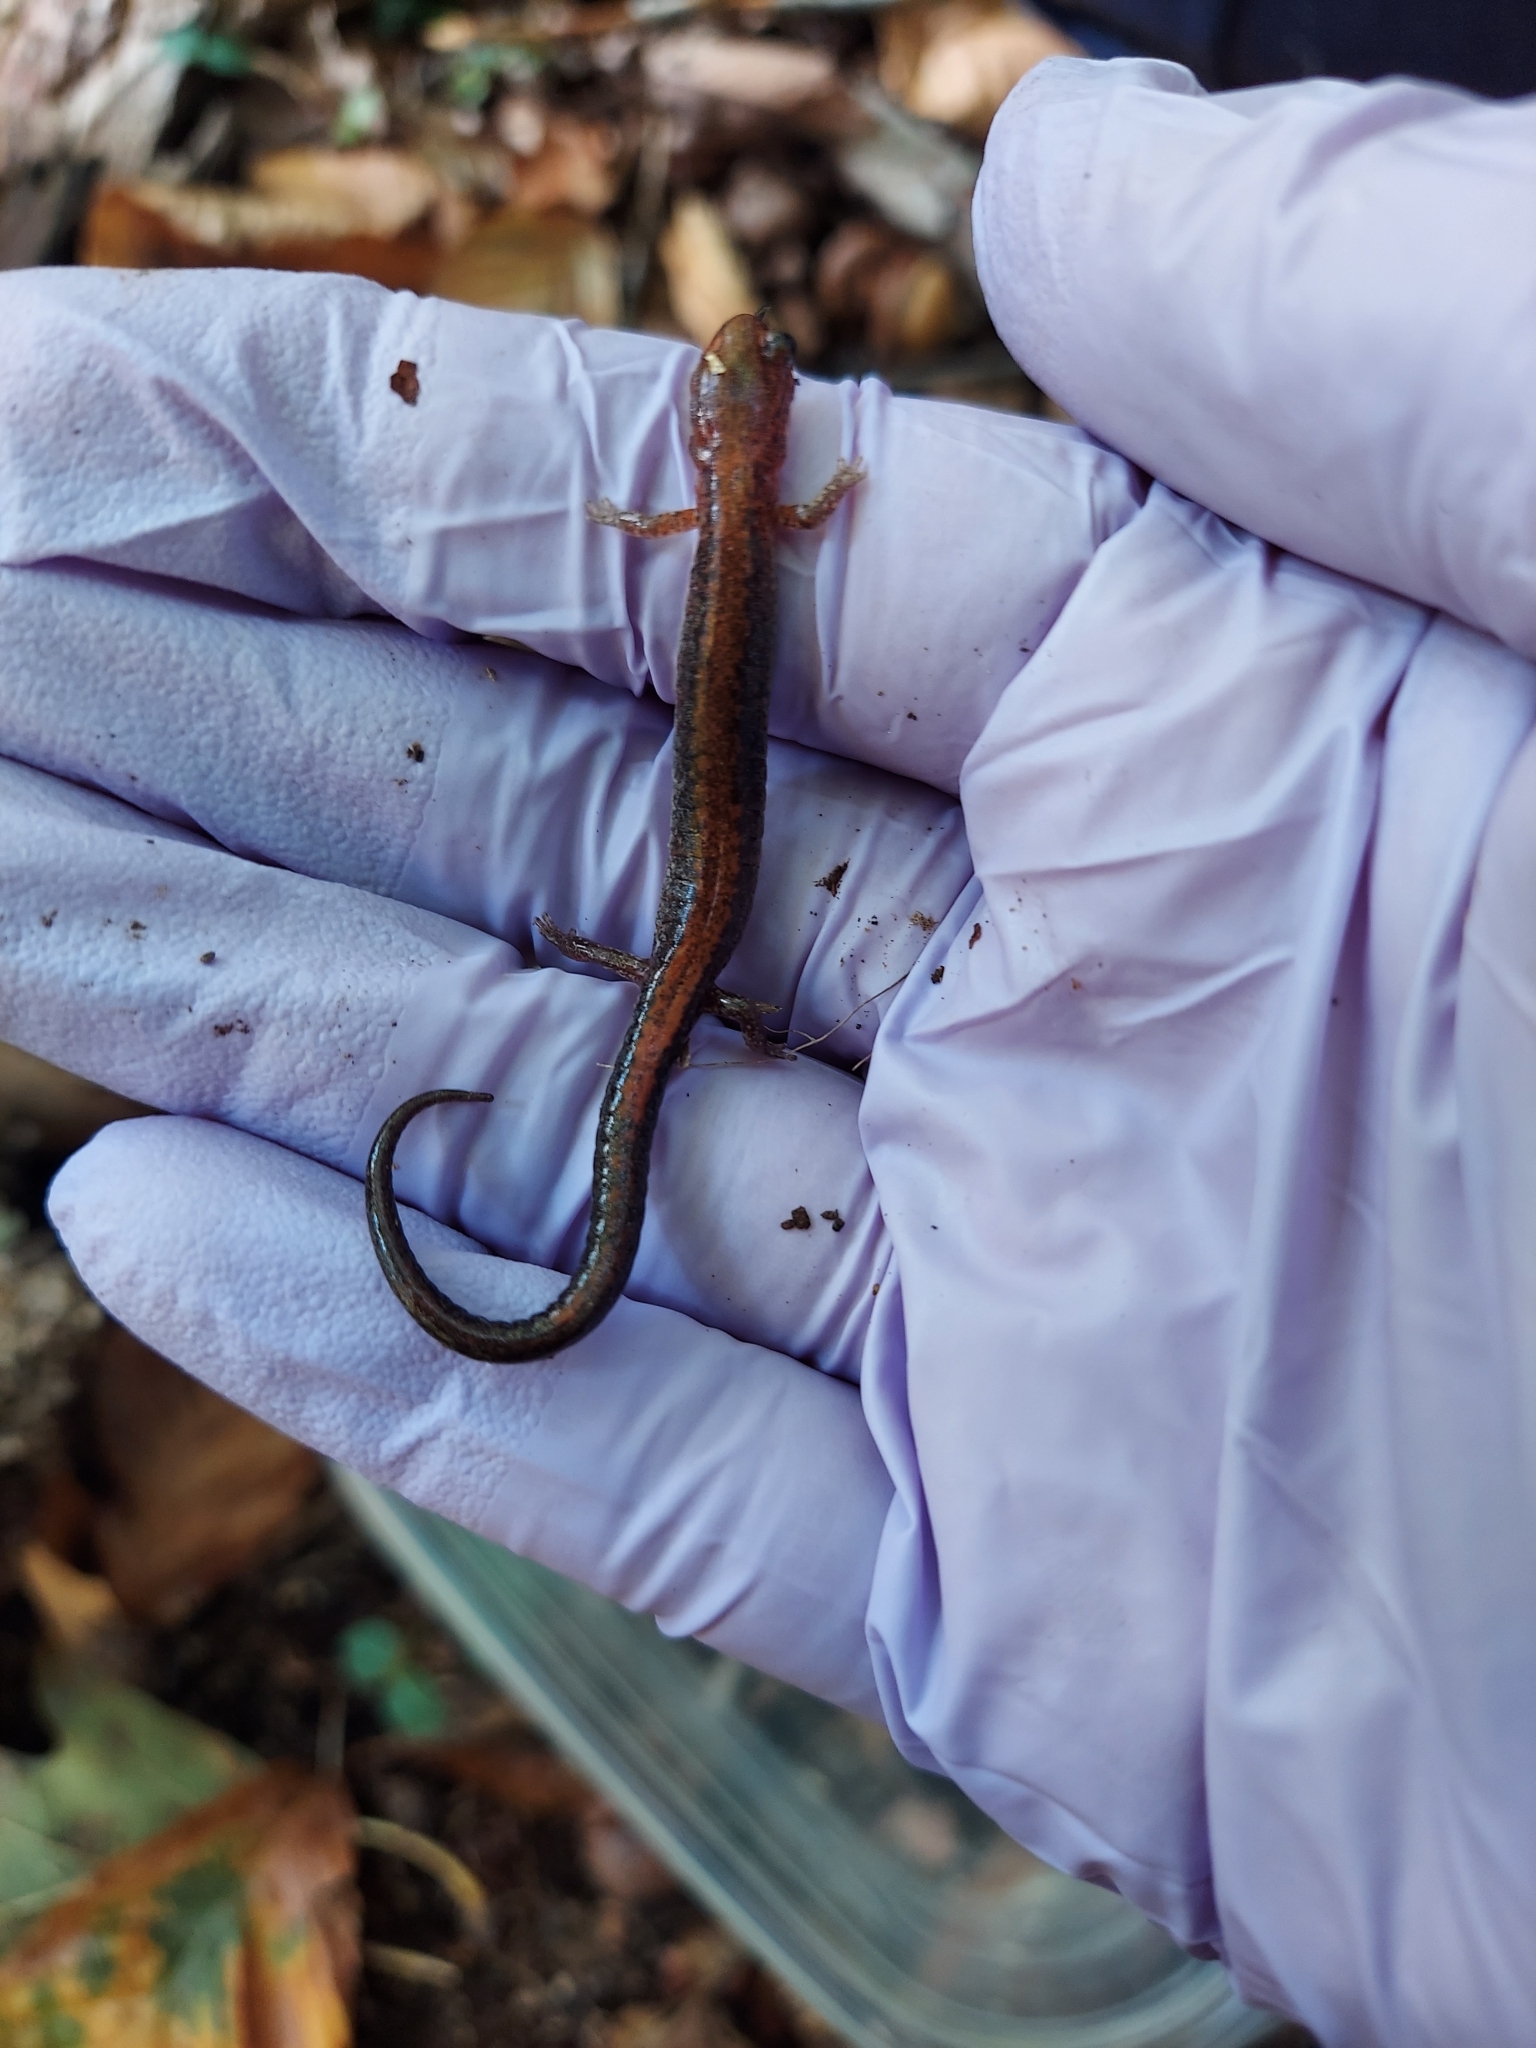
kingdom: Animalia
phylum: Chordata
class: Amphibia
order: Caudata
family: Plethodontidae
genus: Plethodon
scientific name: Plethodon cinereus
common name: Redback salamander
